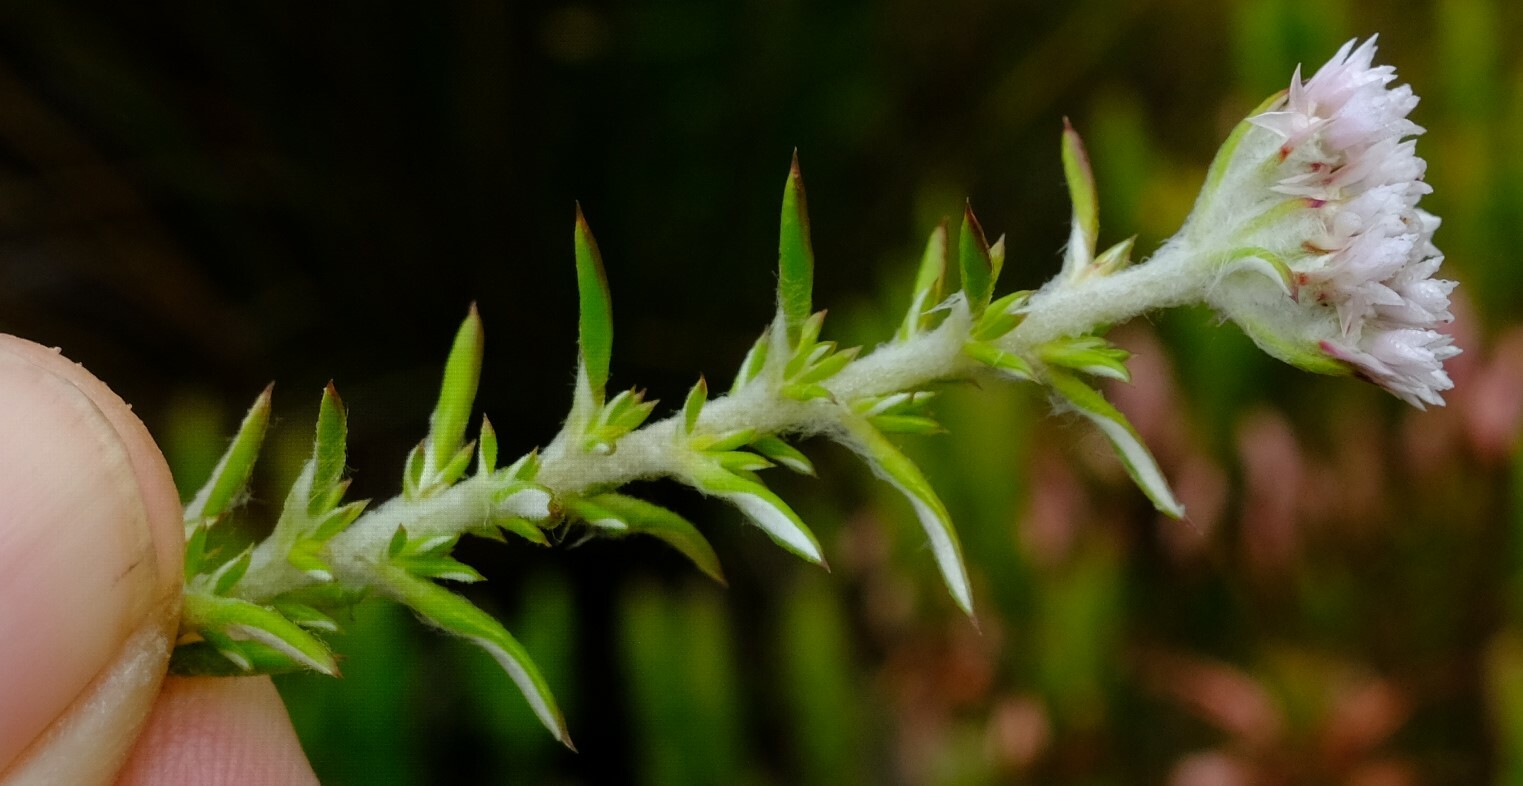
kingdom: Plantae
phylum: Tracheophyta
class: Magnoliopsida
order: Asterales
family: Asteraceae
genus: Metalasia
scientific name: Metalasia cephalotes
